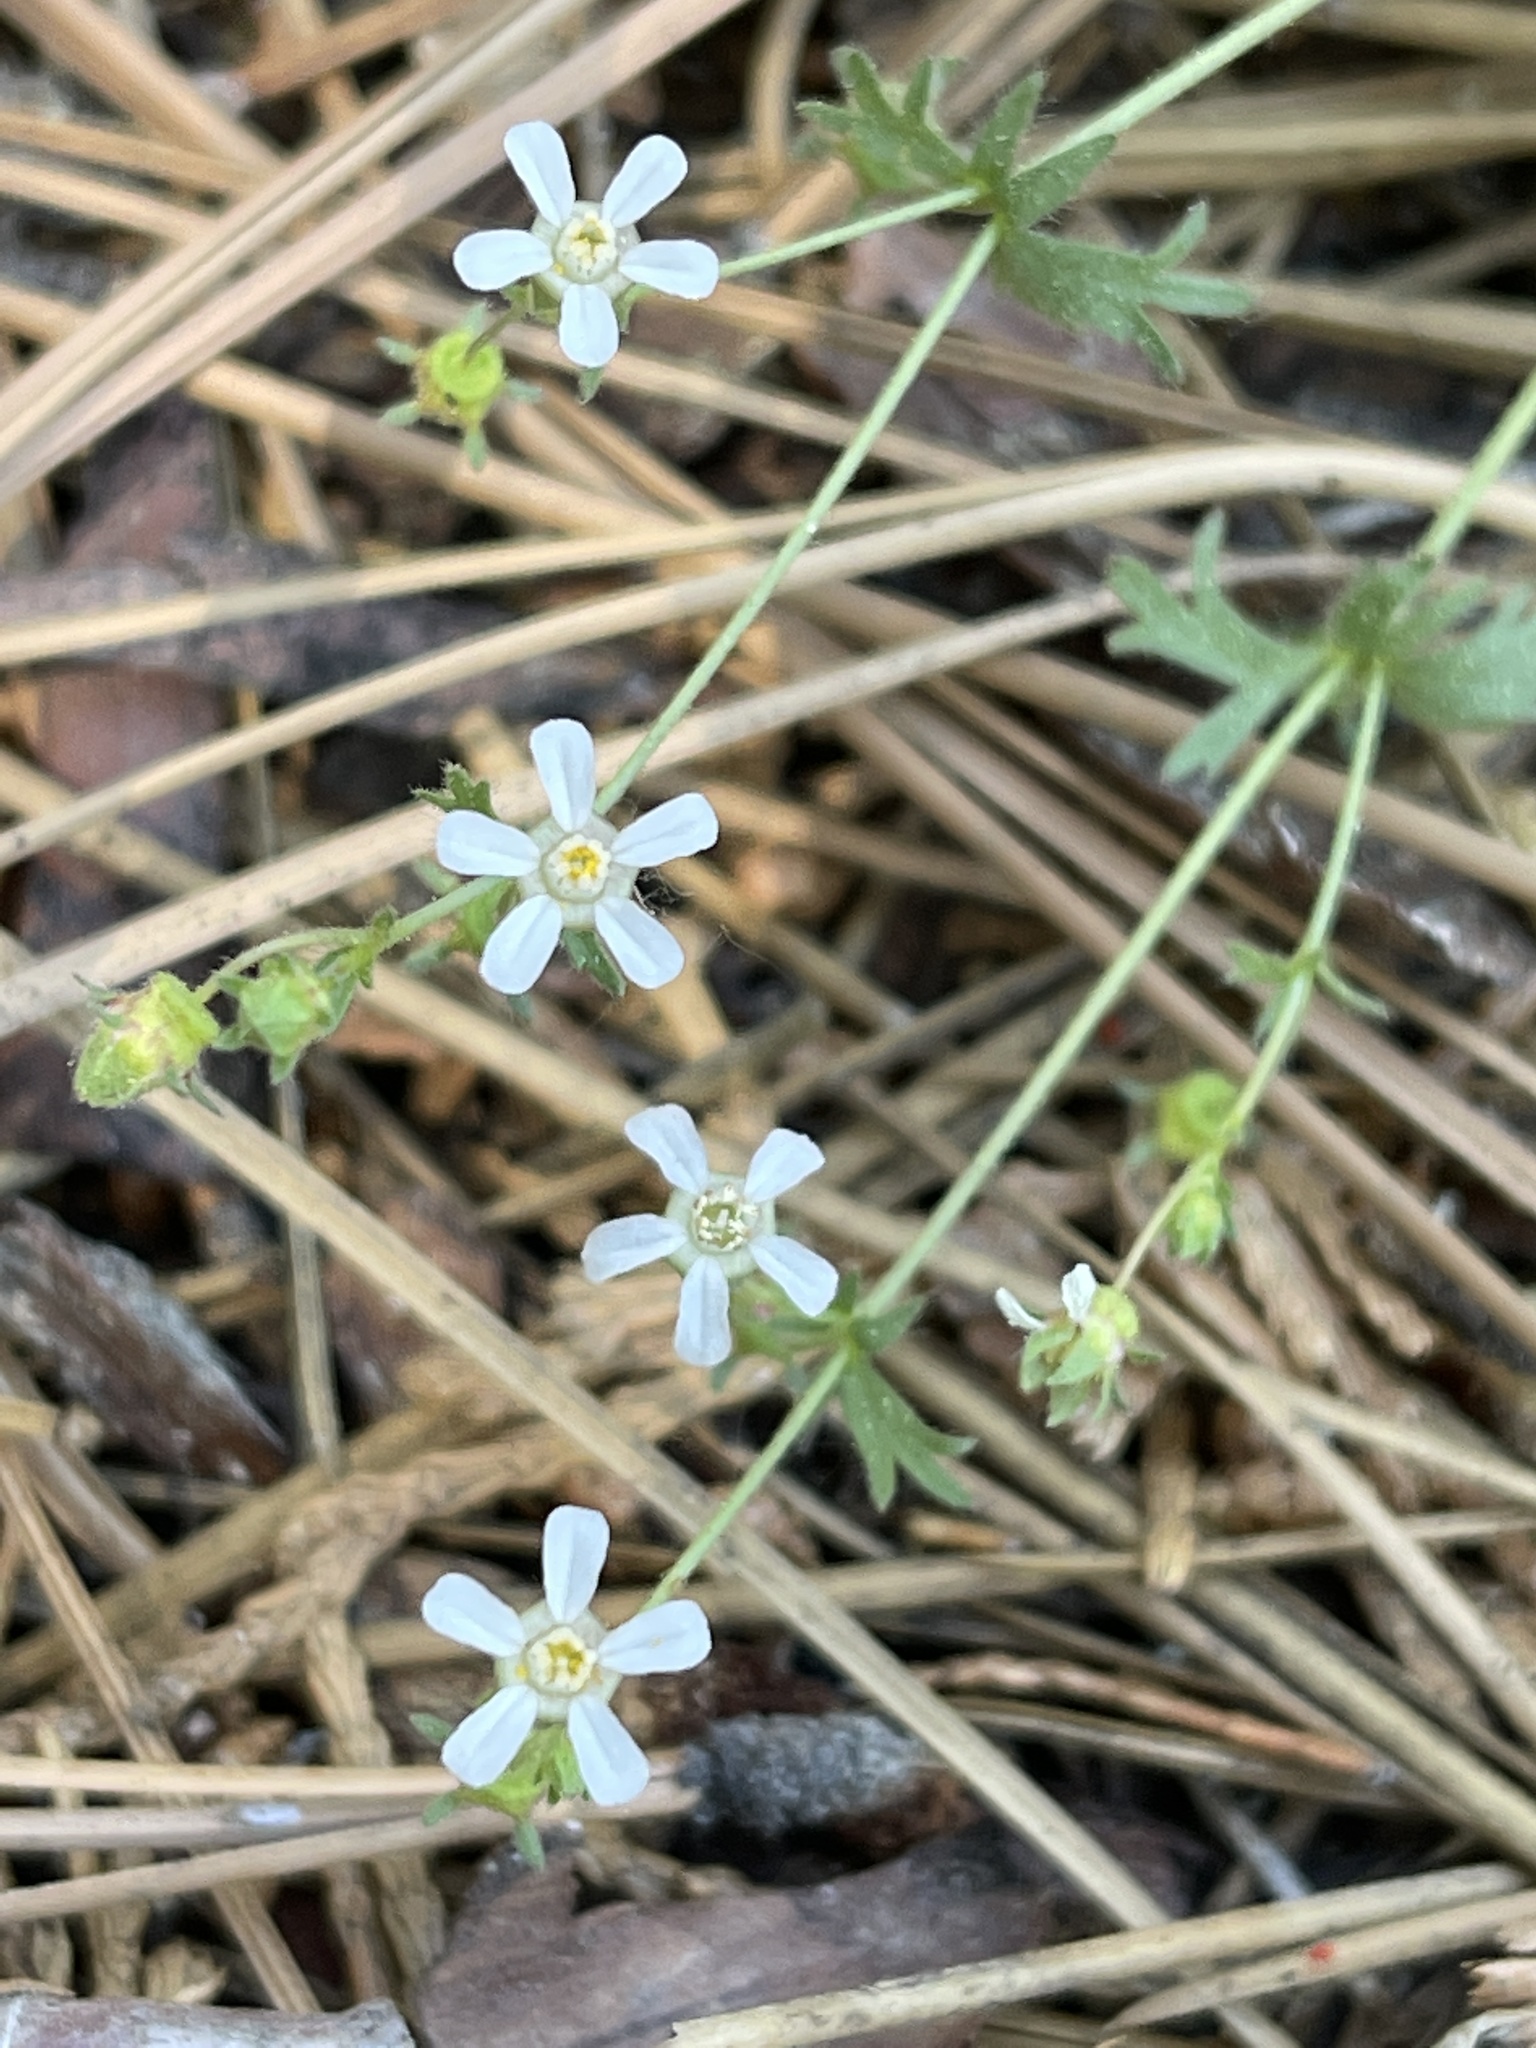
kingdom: Plantae
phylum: Tracheophyta
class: Magnoliopsida
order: Rosales
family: Rosaceae
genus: Potentilla
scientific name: Potentilla wilderae
